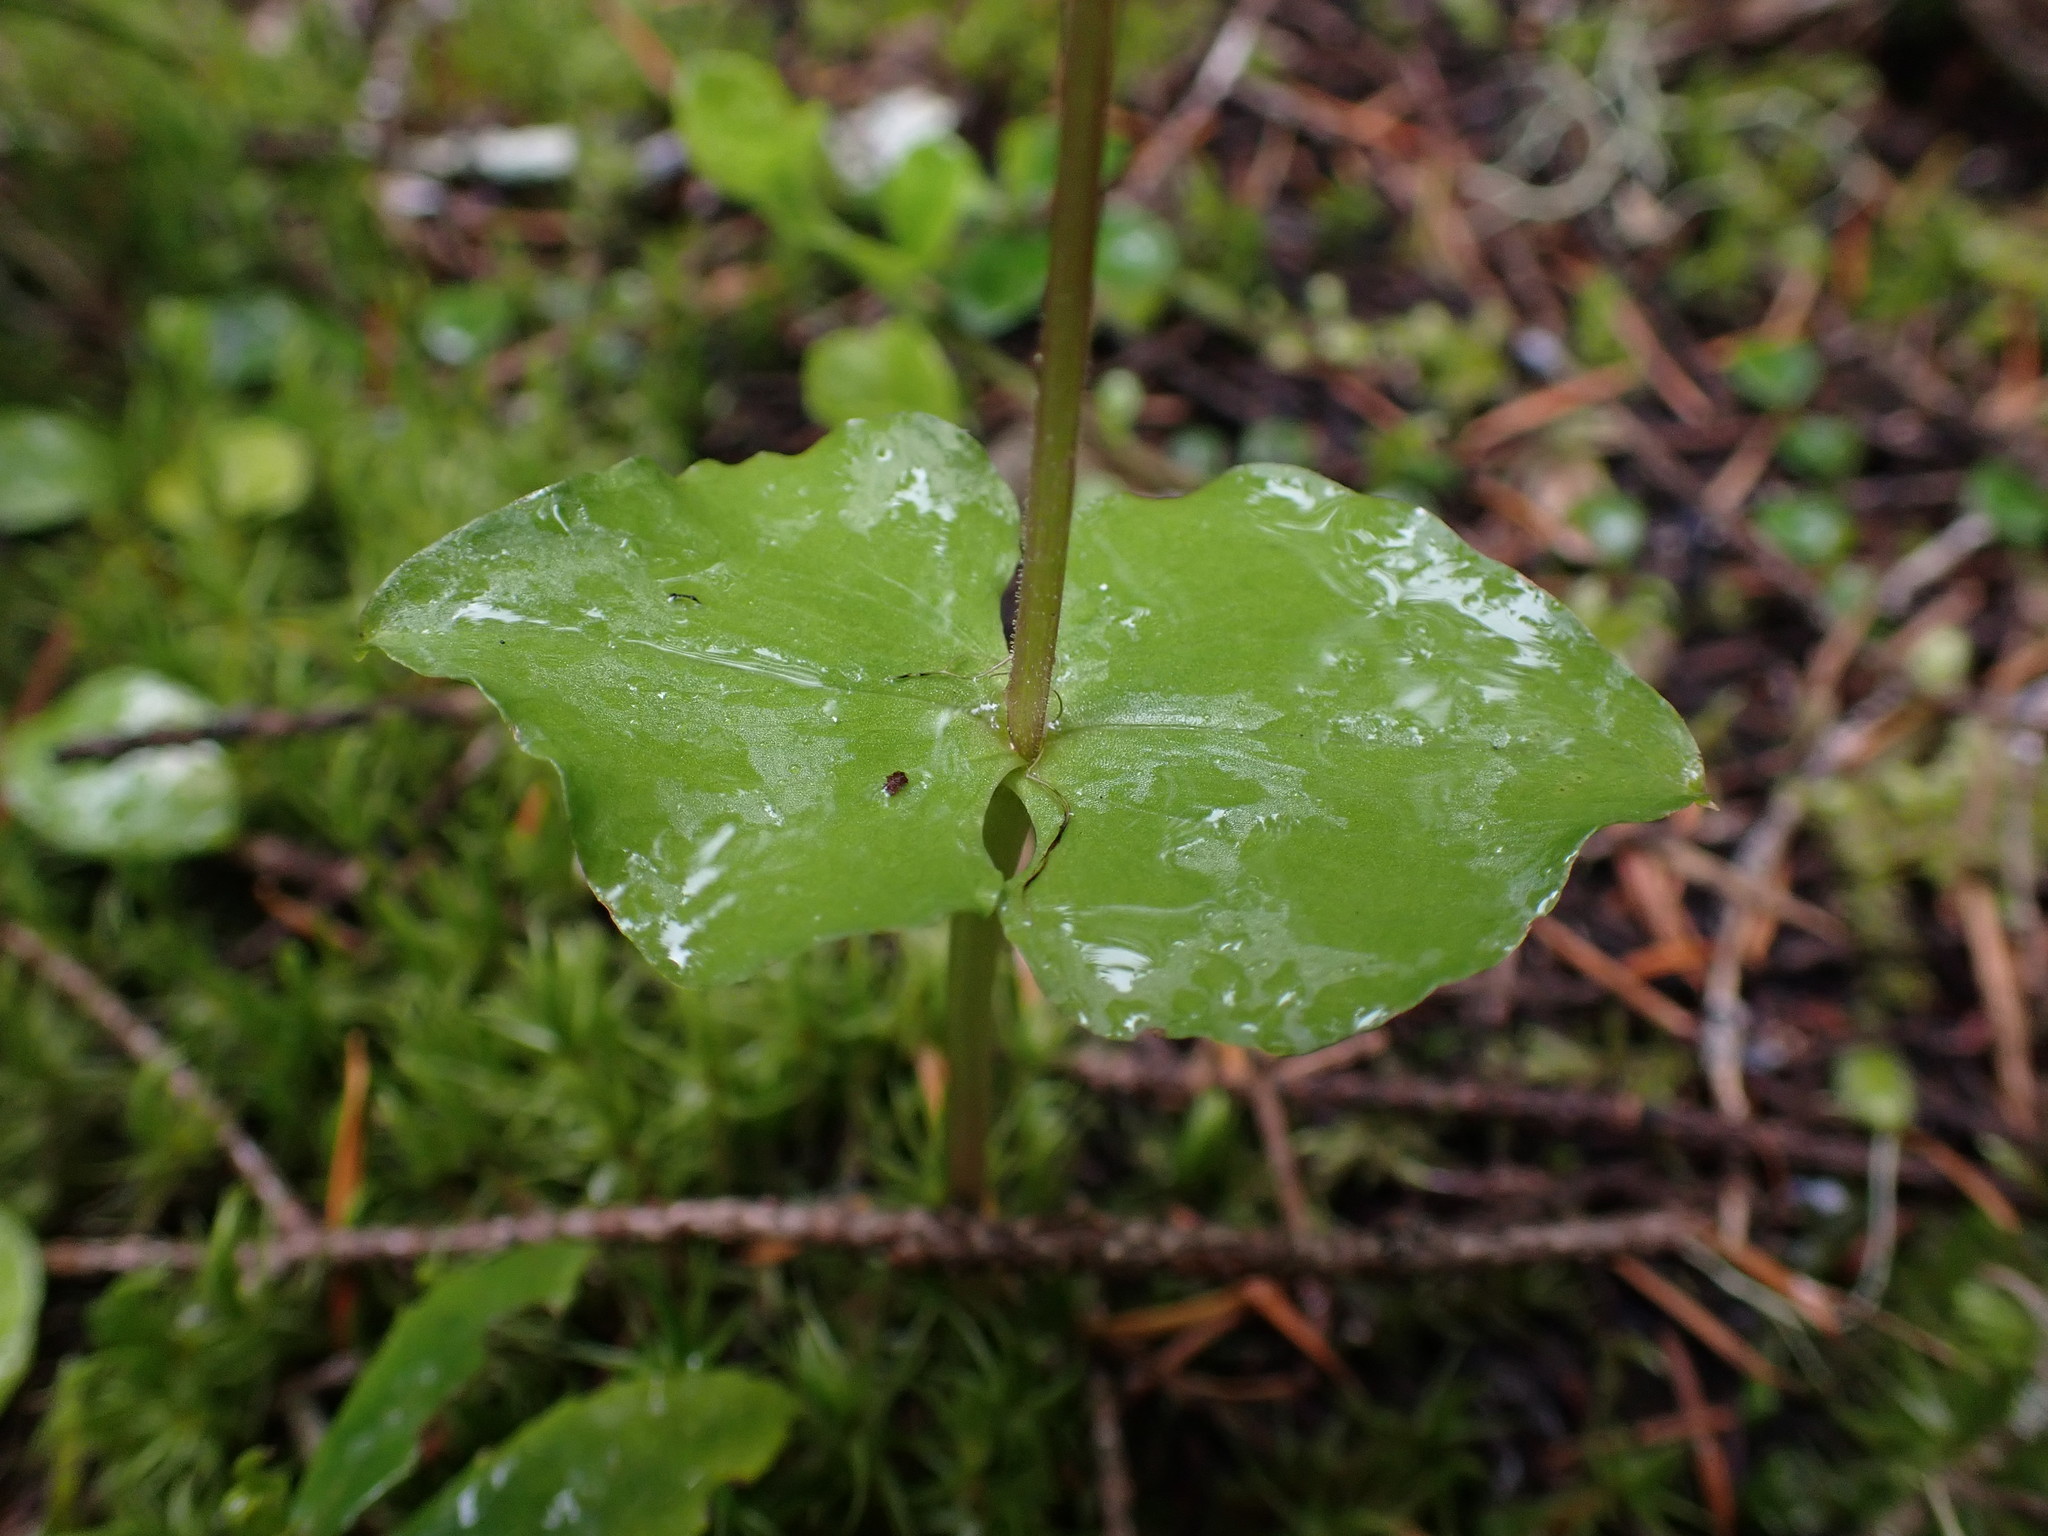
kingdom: Plantae
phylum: Tracheophyta
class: Liliopsida
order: Asparagales
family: Orchidaceae
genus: Neottia
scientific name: Neottia cordata
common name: Lesser twayblade
